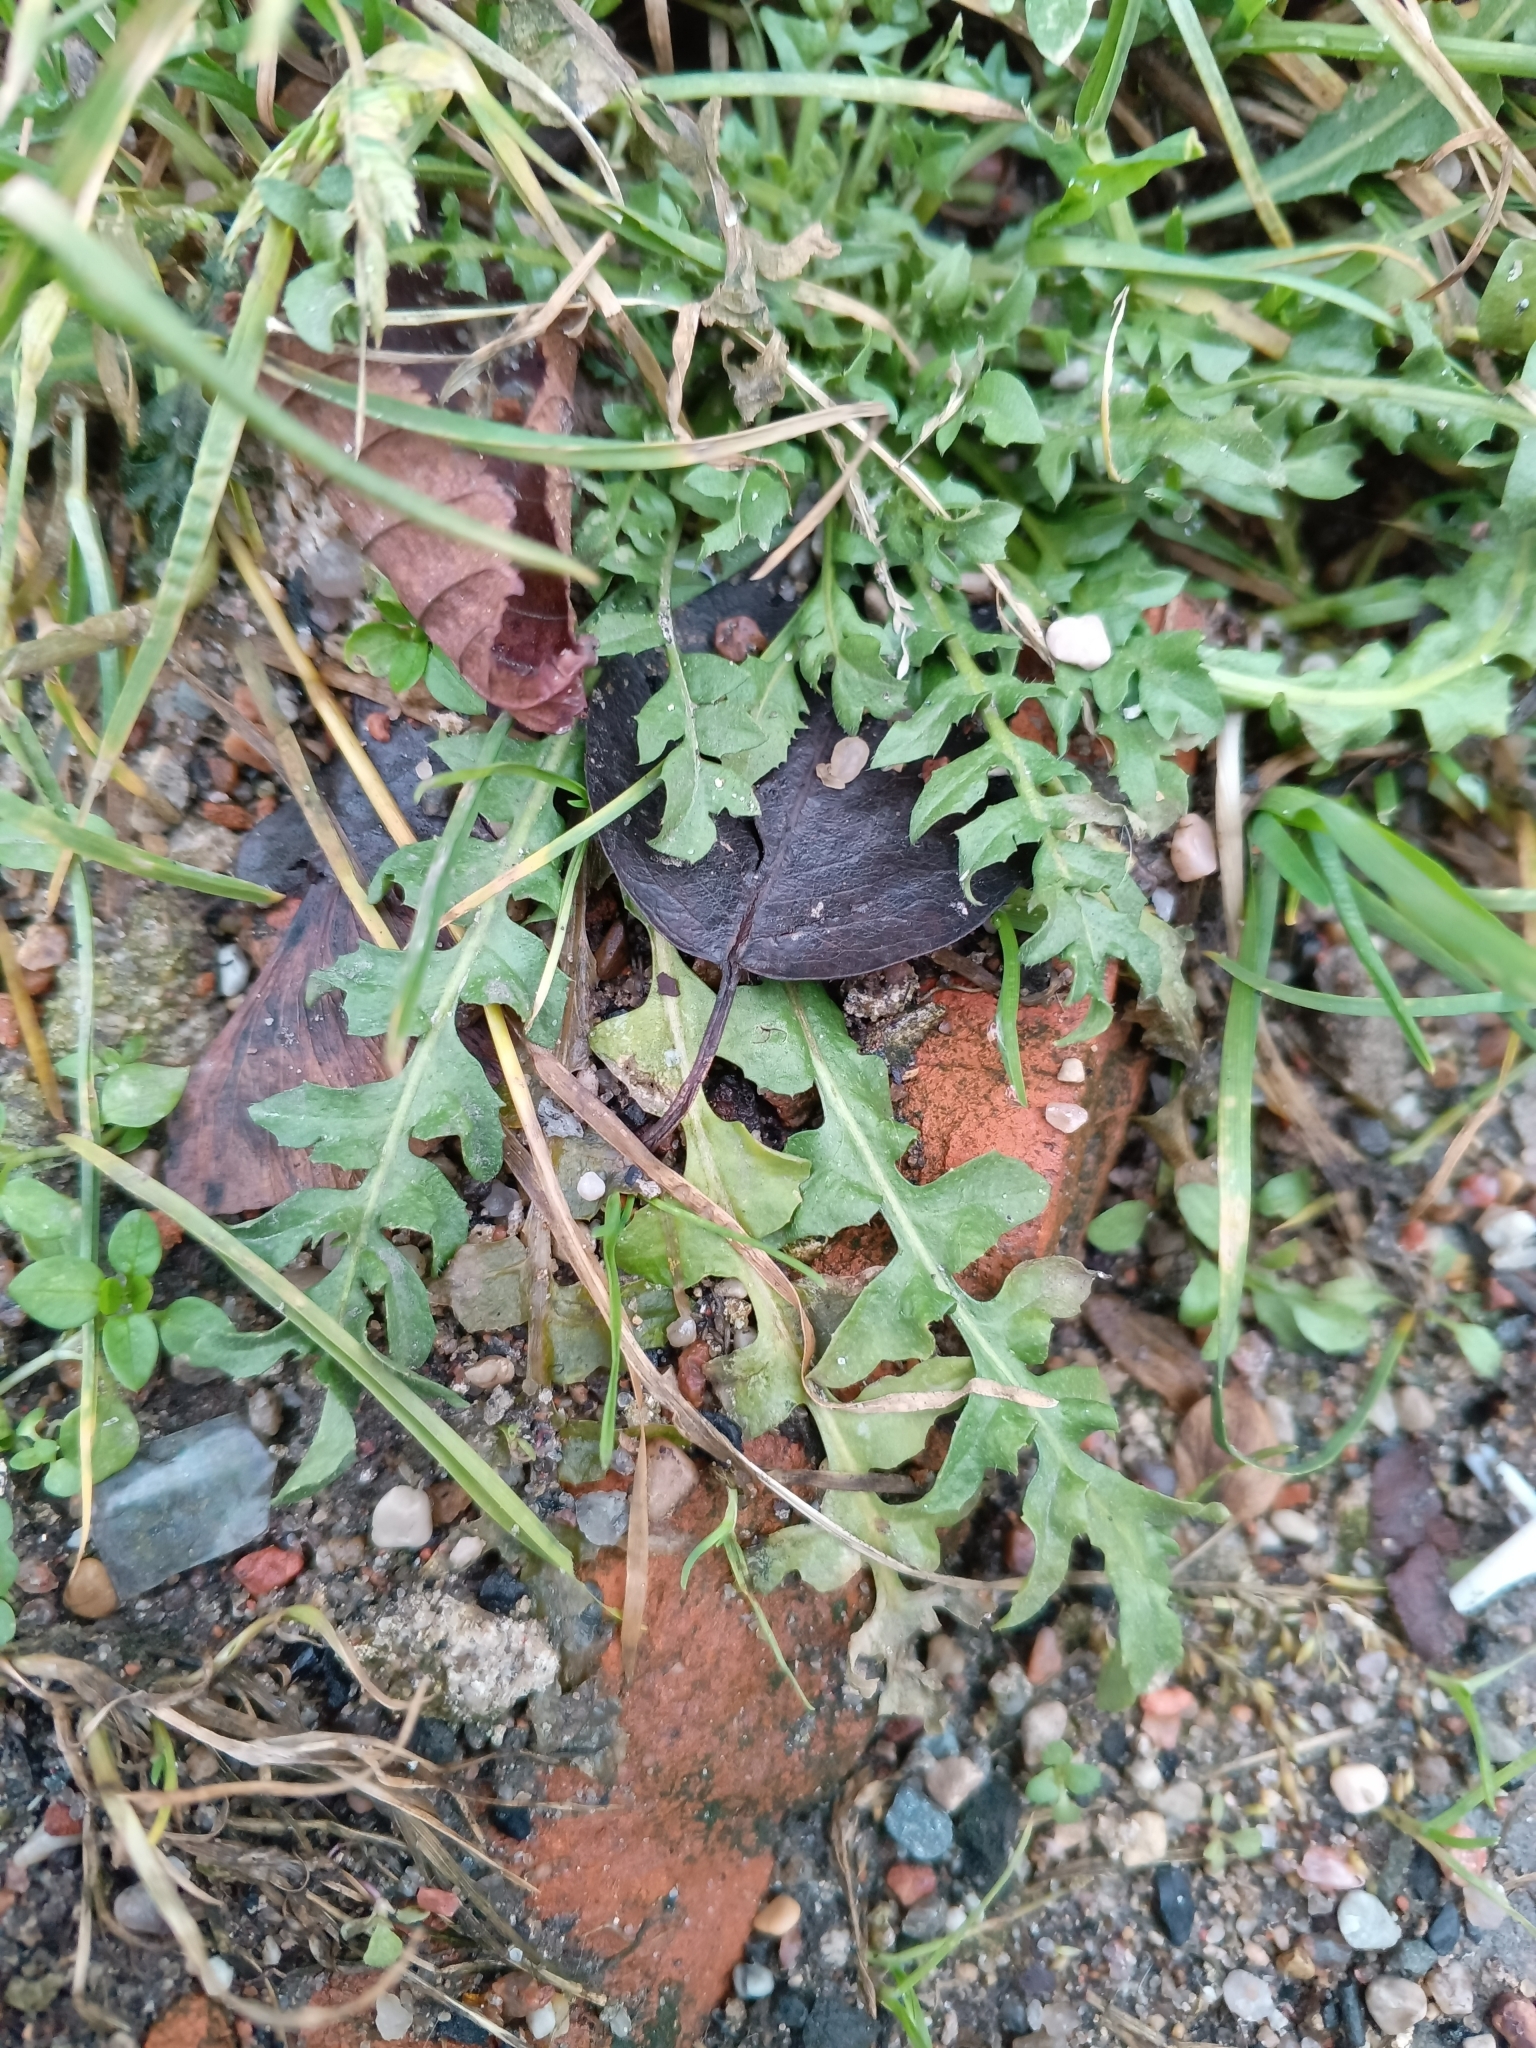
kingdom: Plantae
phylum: Tracheophyta
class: Magnoliopsida
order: Brassicales
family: Brassicaceae
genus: Capsella
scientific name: Capsella bursa-pastoris
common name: Shepherd's purse
